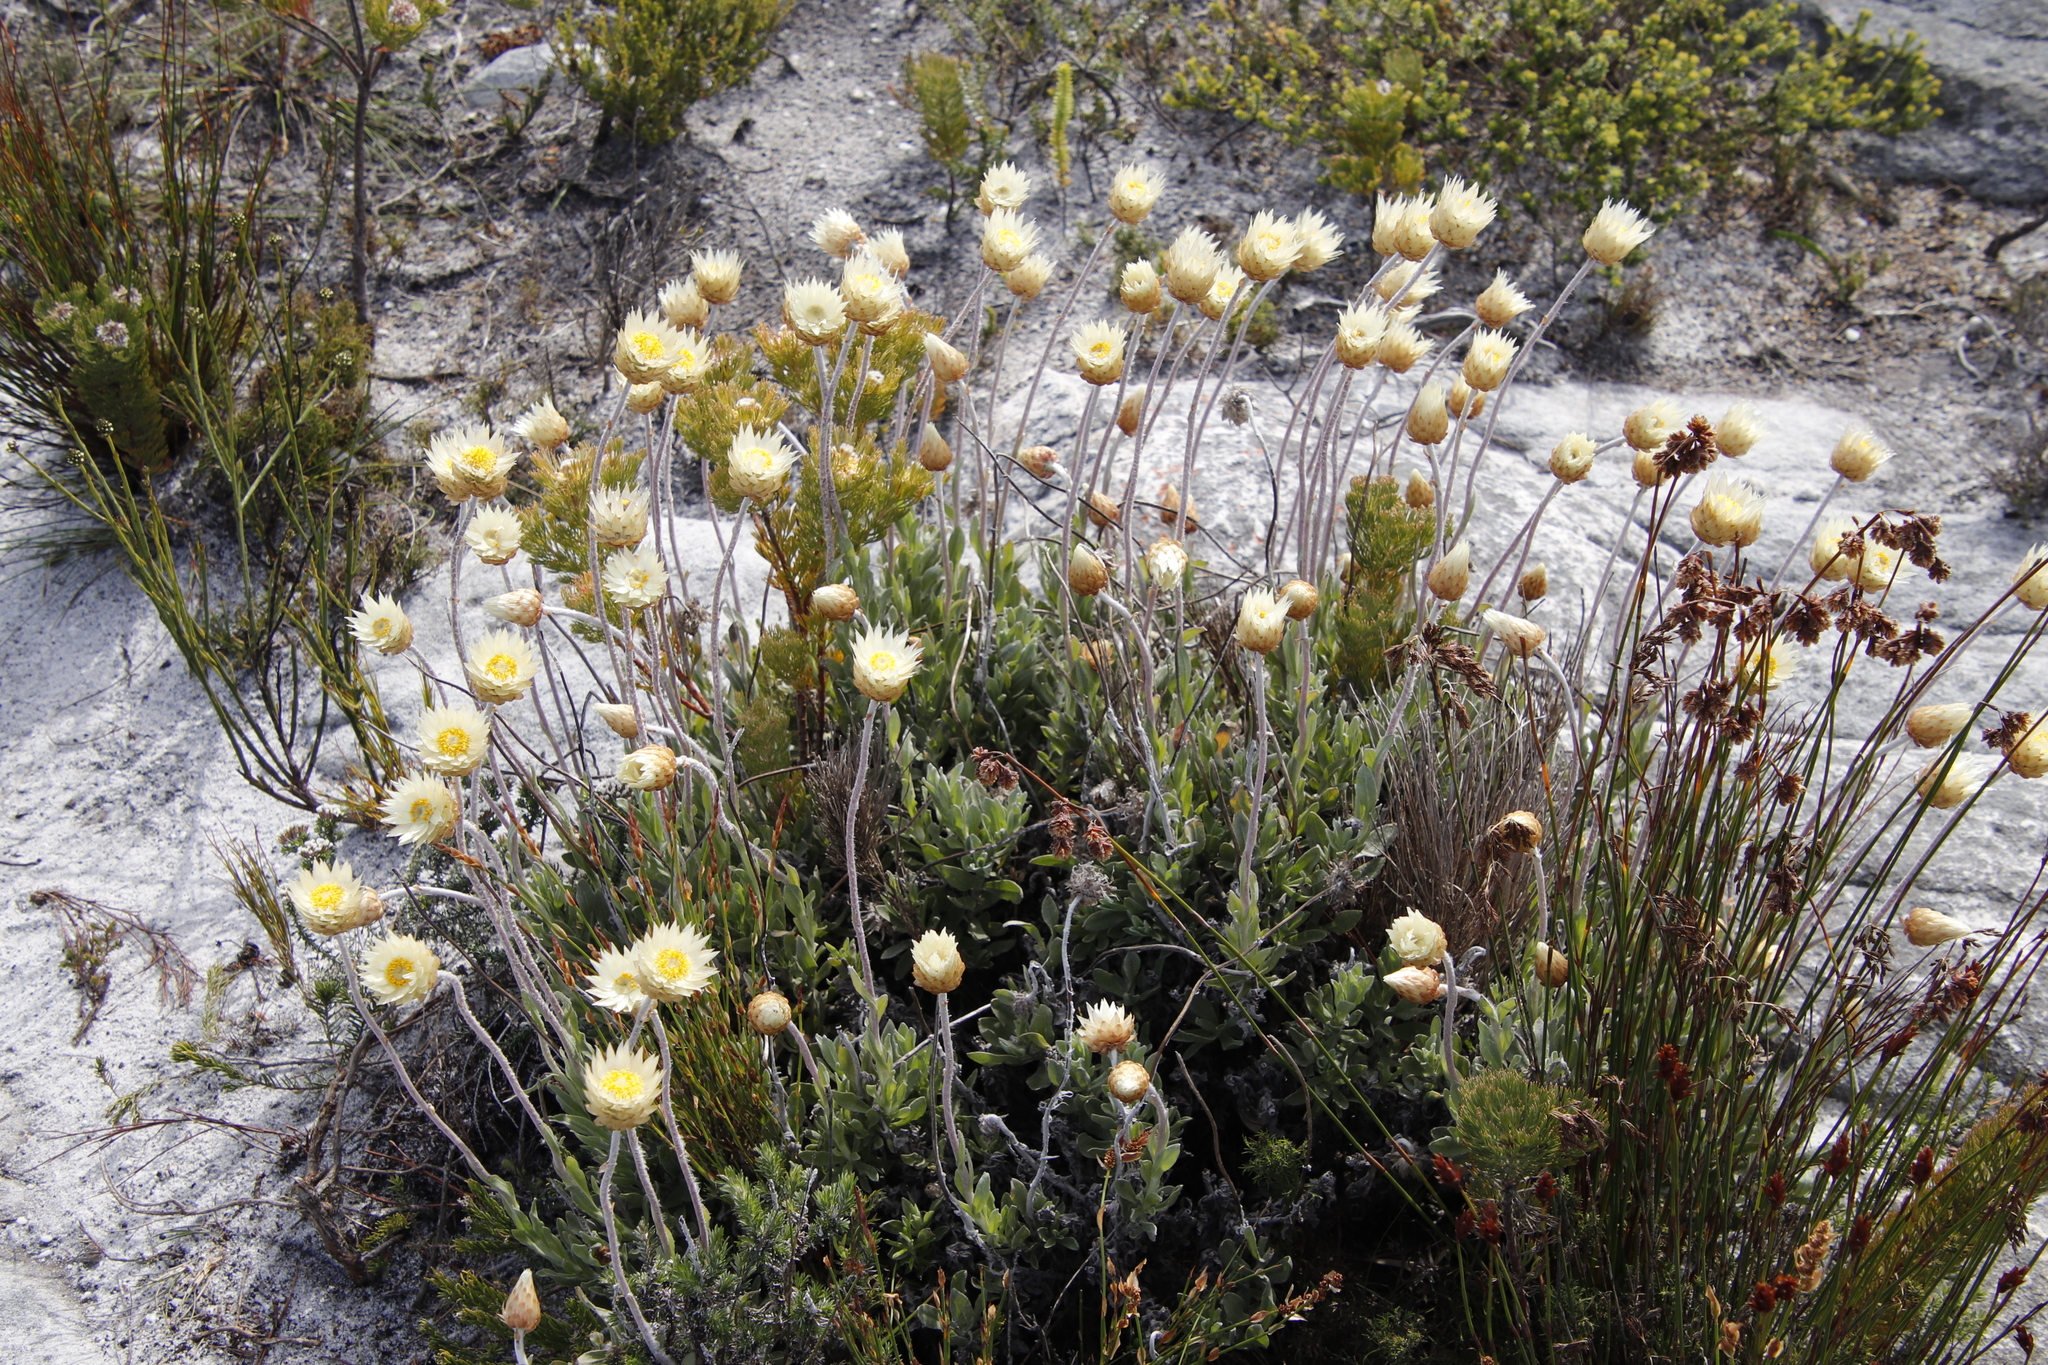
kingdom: Plantae
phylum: Tracheophyta
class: Magnoliopsida
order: Asterales
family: Asteraceae
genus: Syncarpha
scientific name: Syncarpha speciosissima
